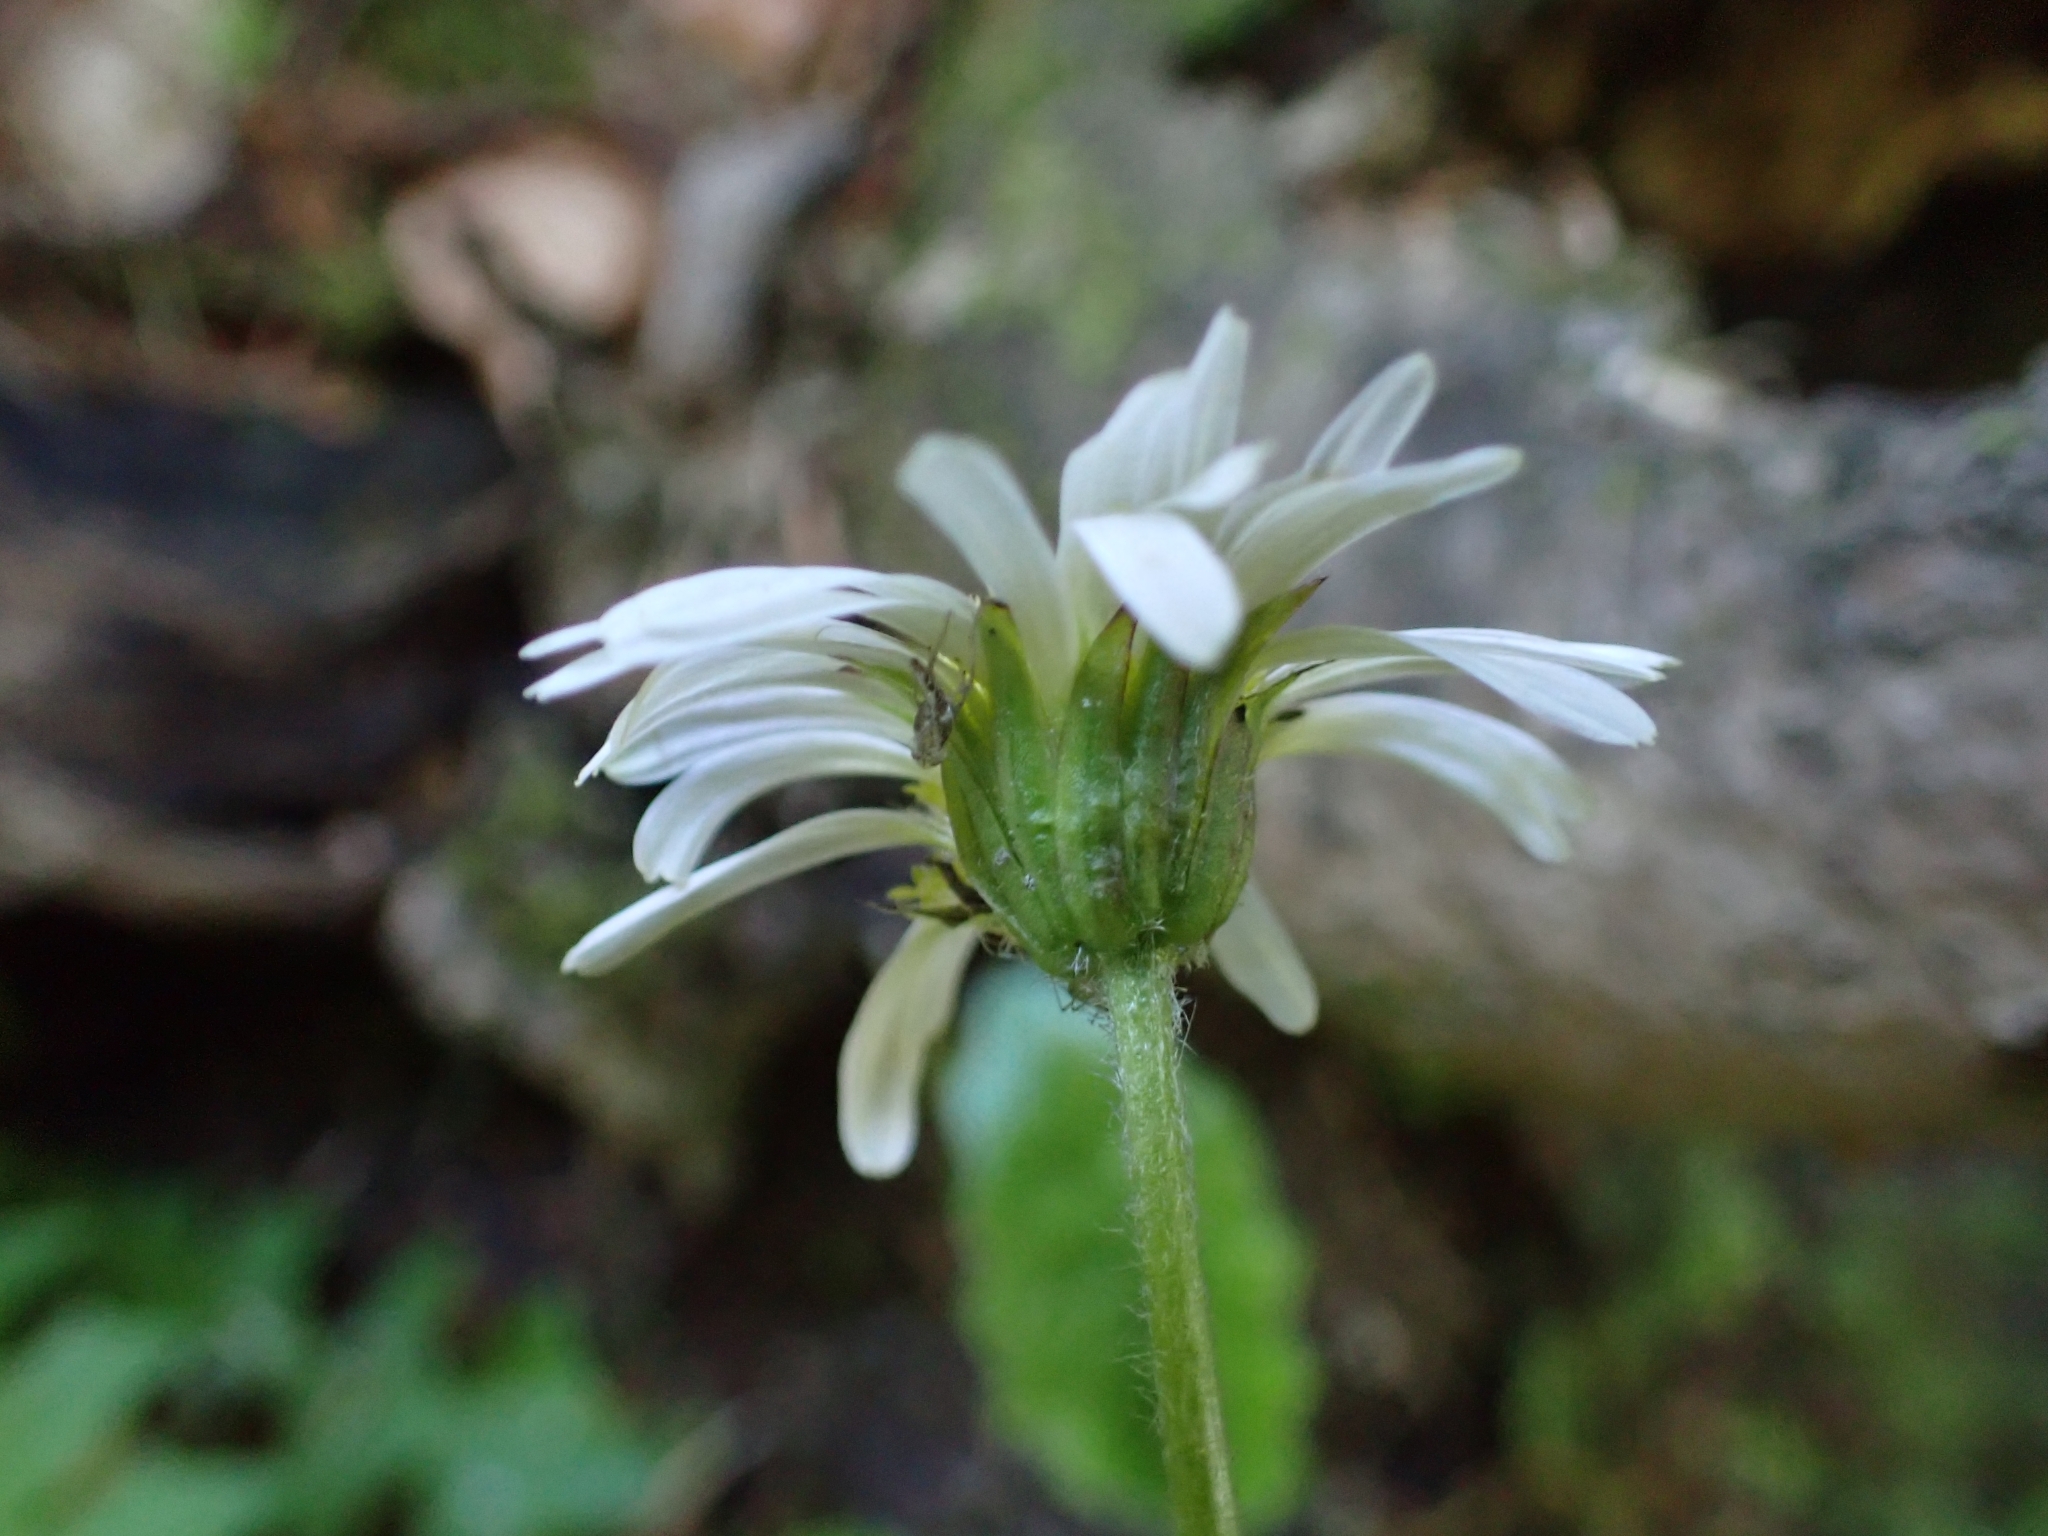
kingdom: Plantae
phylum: Tracheophyta
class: Magnoliopsida
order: Asterales
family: Asteraceae
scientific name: Asteraceae
